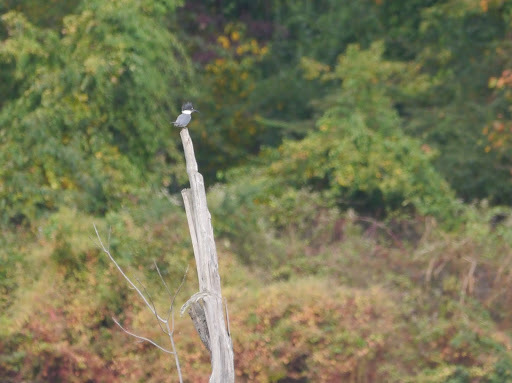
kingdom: Animalia
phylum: Chordata
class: Aves
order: Coraciiformes
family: Alcedinidae
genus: Megaceryle
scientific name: Megaceryle alcyon
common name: Belted kingfisher
